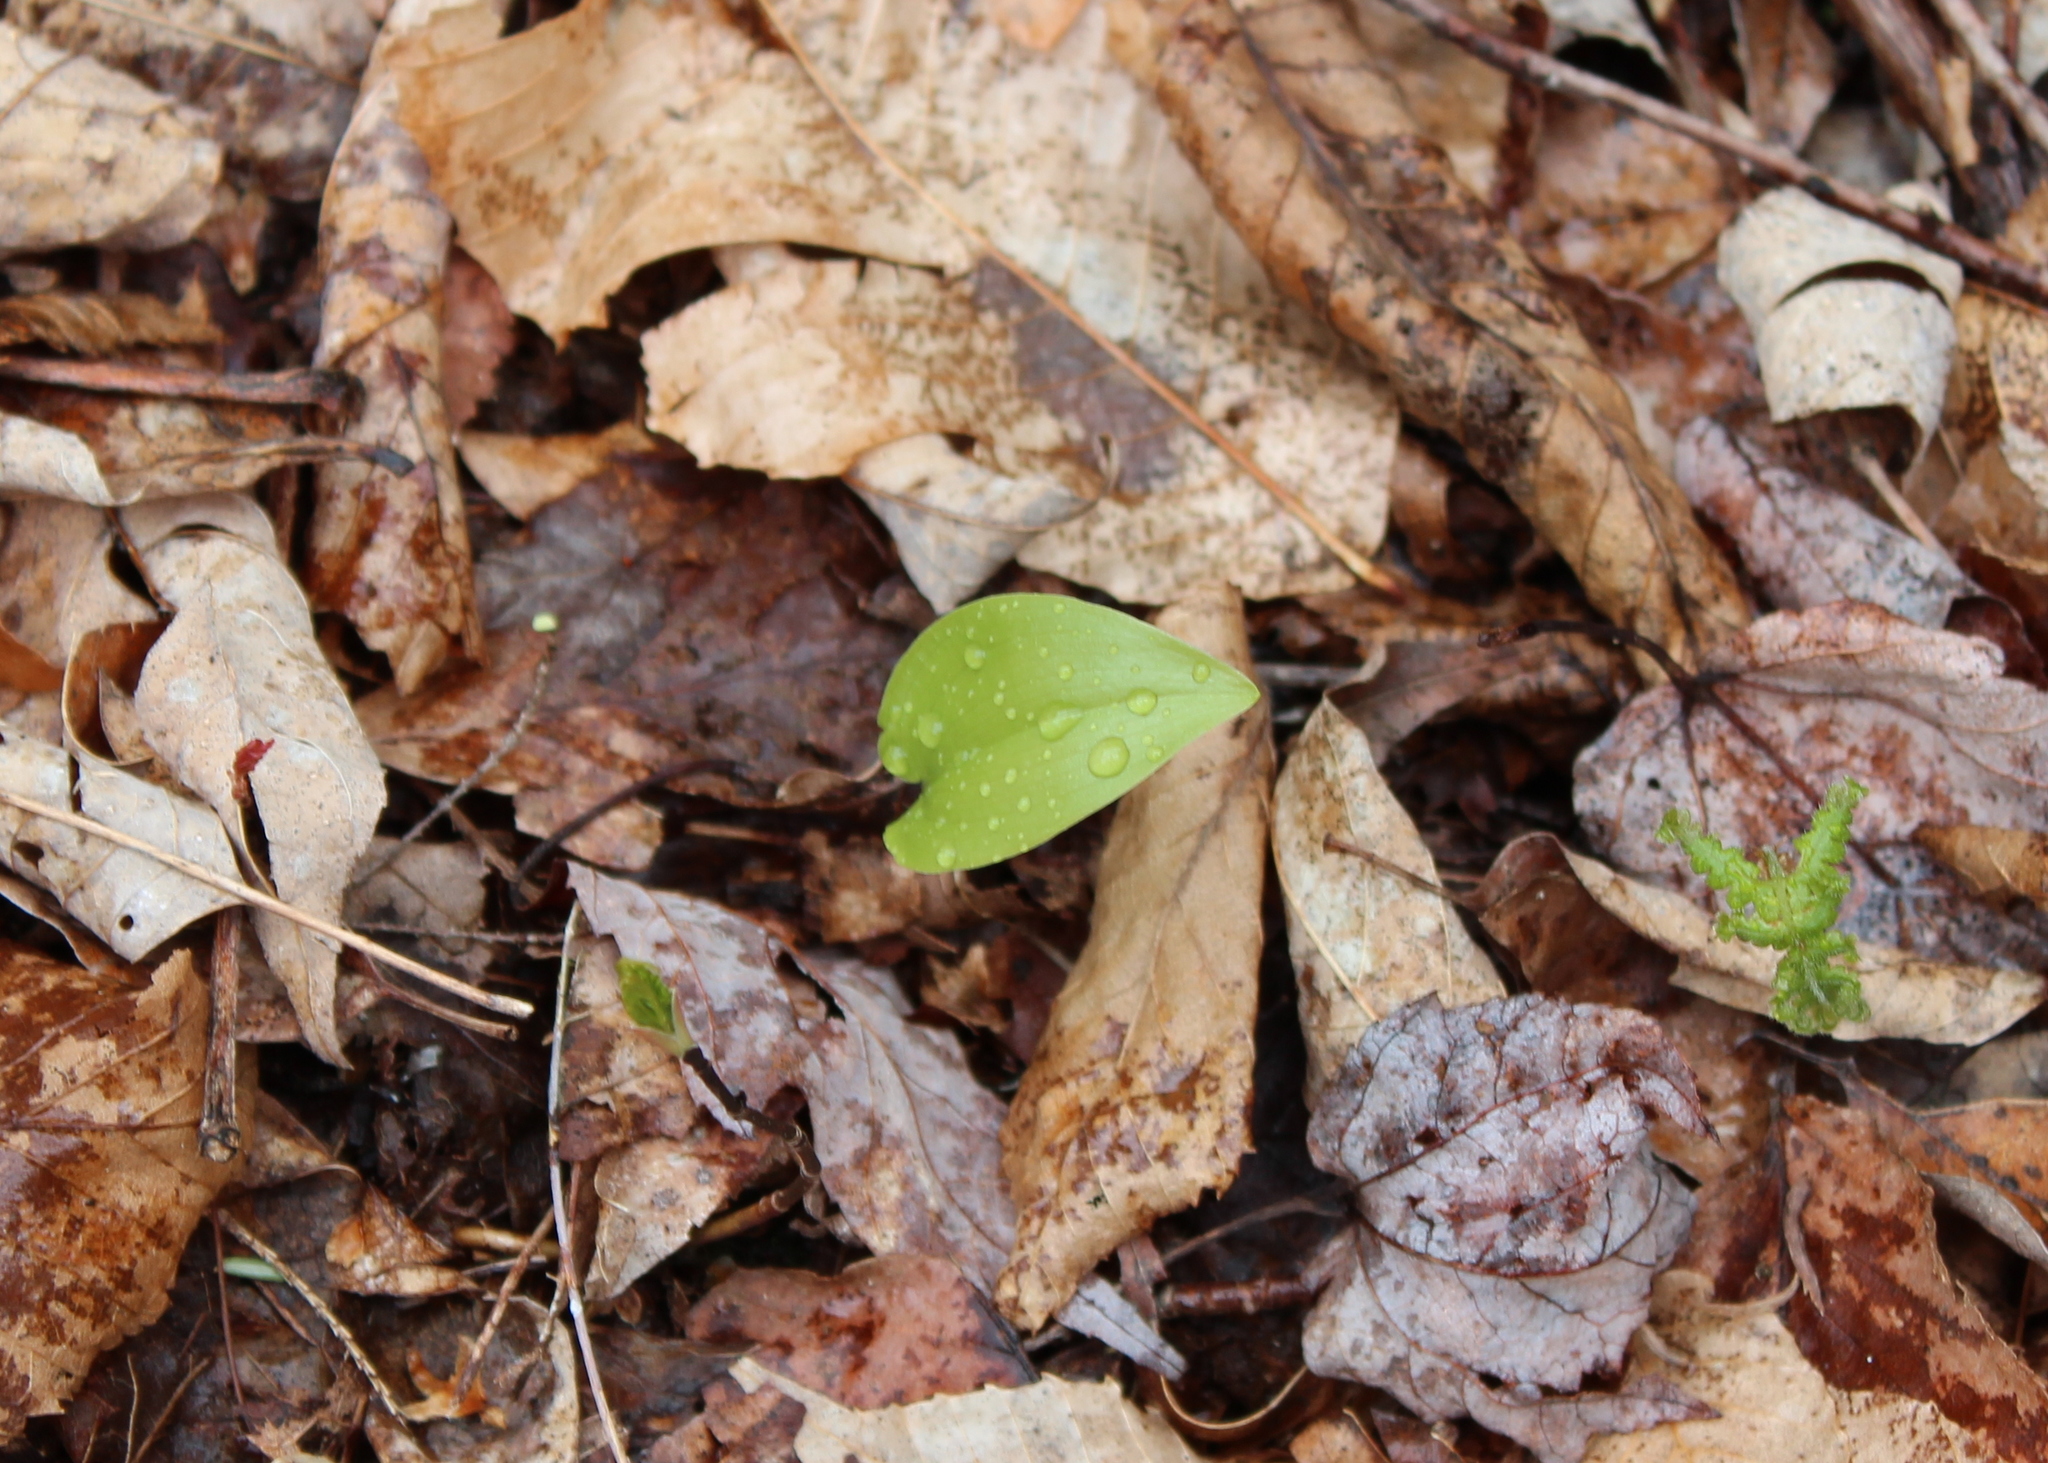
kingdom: Plantae
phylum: Tracheophyta
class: Liliopsida
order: Asparagales
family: Asparagaceae
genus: Maianthemum
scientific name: Maianthemum canadense
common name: False lily-of-the-valley
